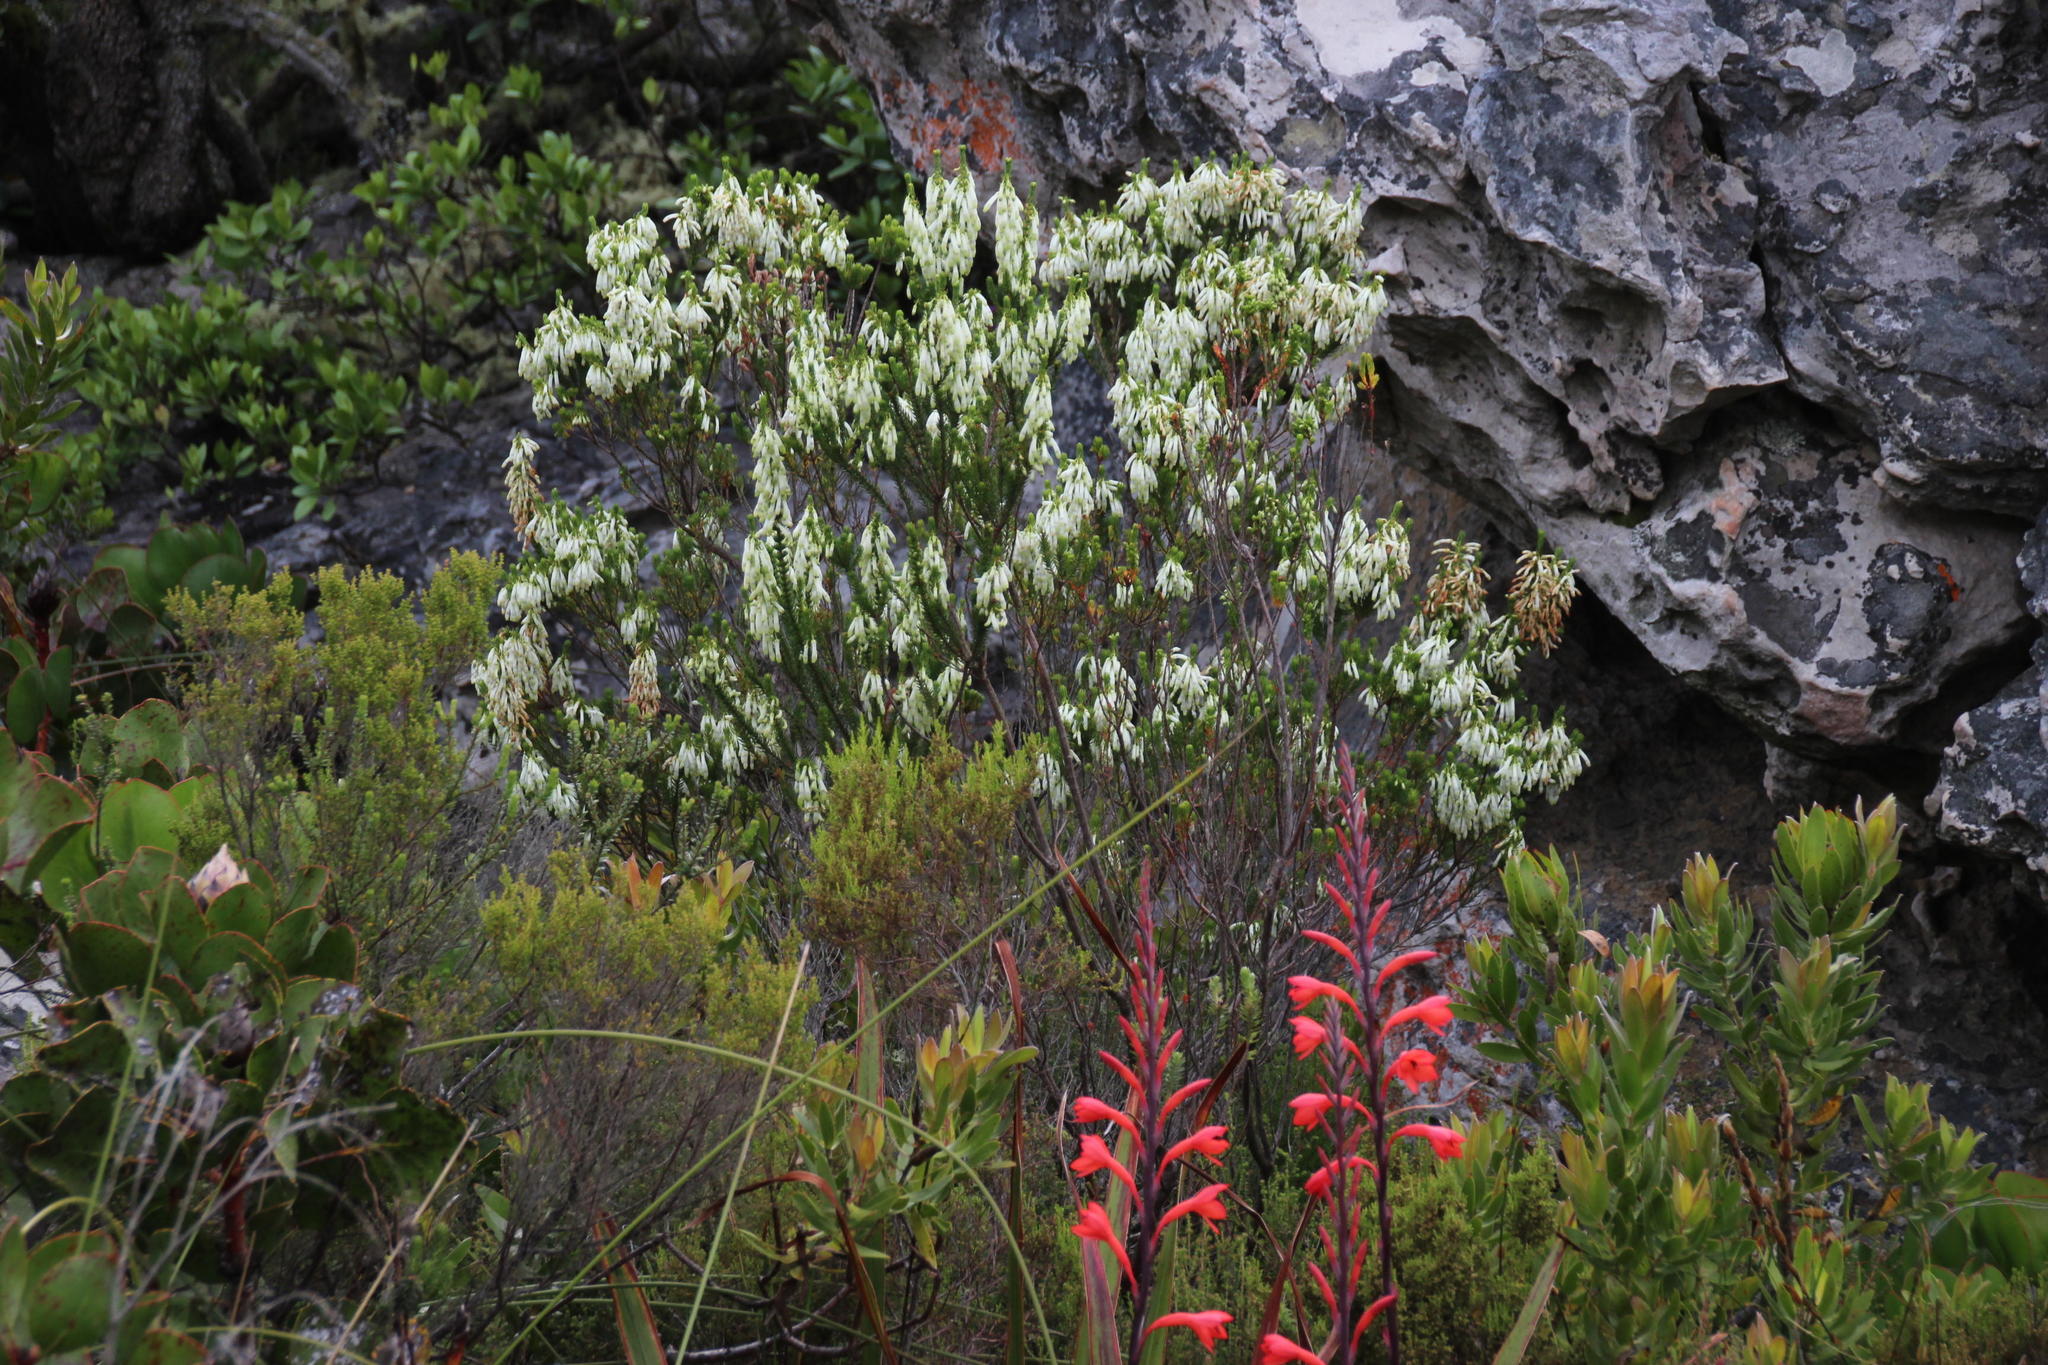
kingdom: Plantae
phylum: Tracheophyta
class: Magnoliopsida
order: Ericales
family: Ericaceae
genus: Erica
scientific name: Erica mammosa
